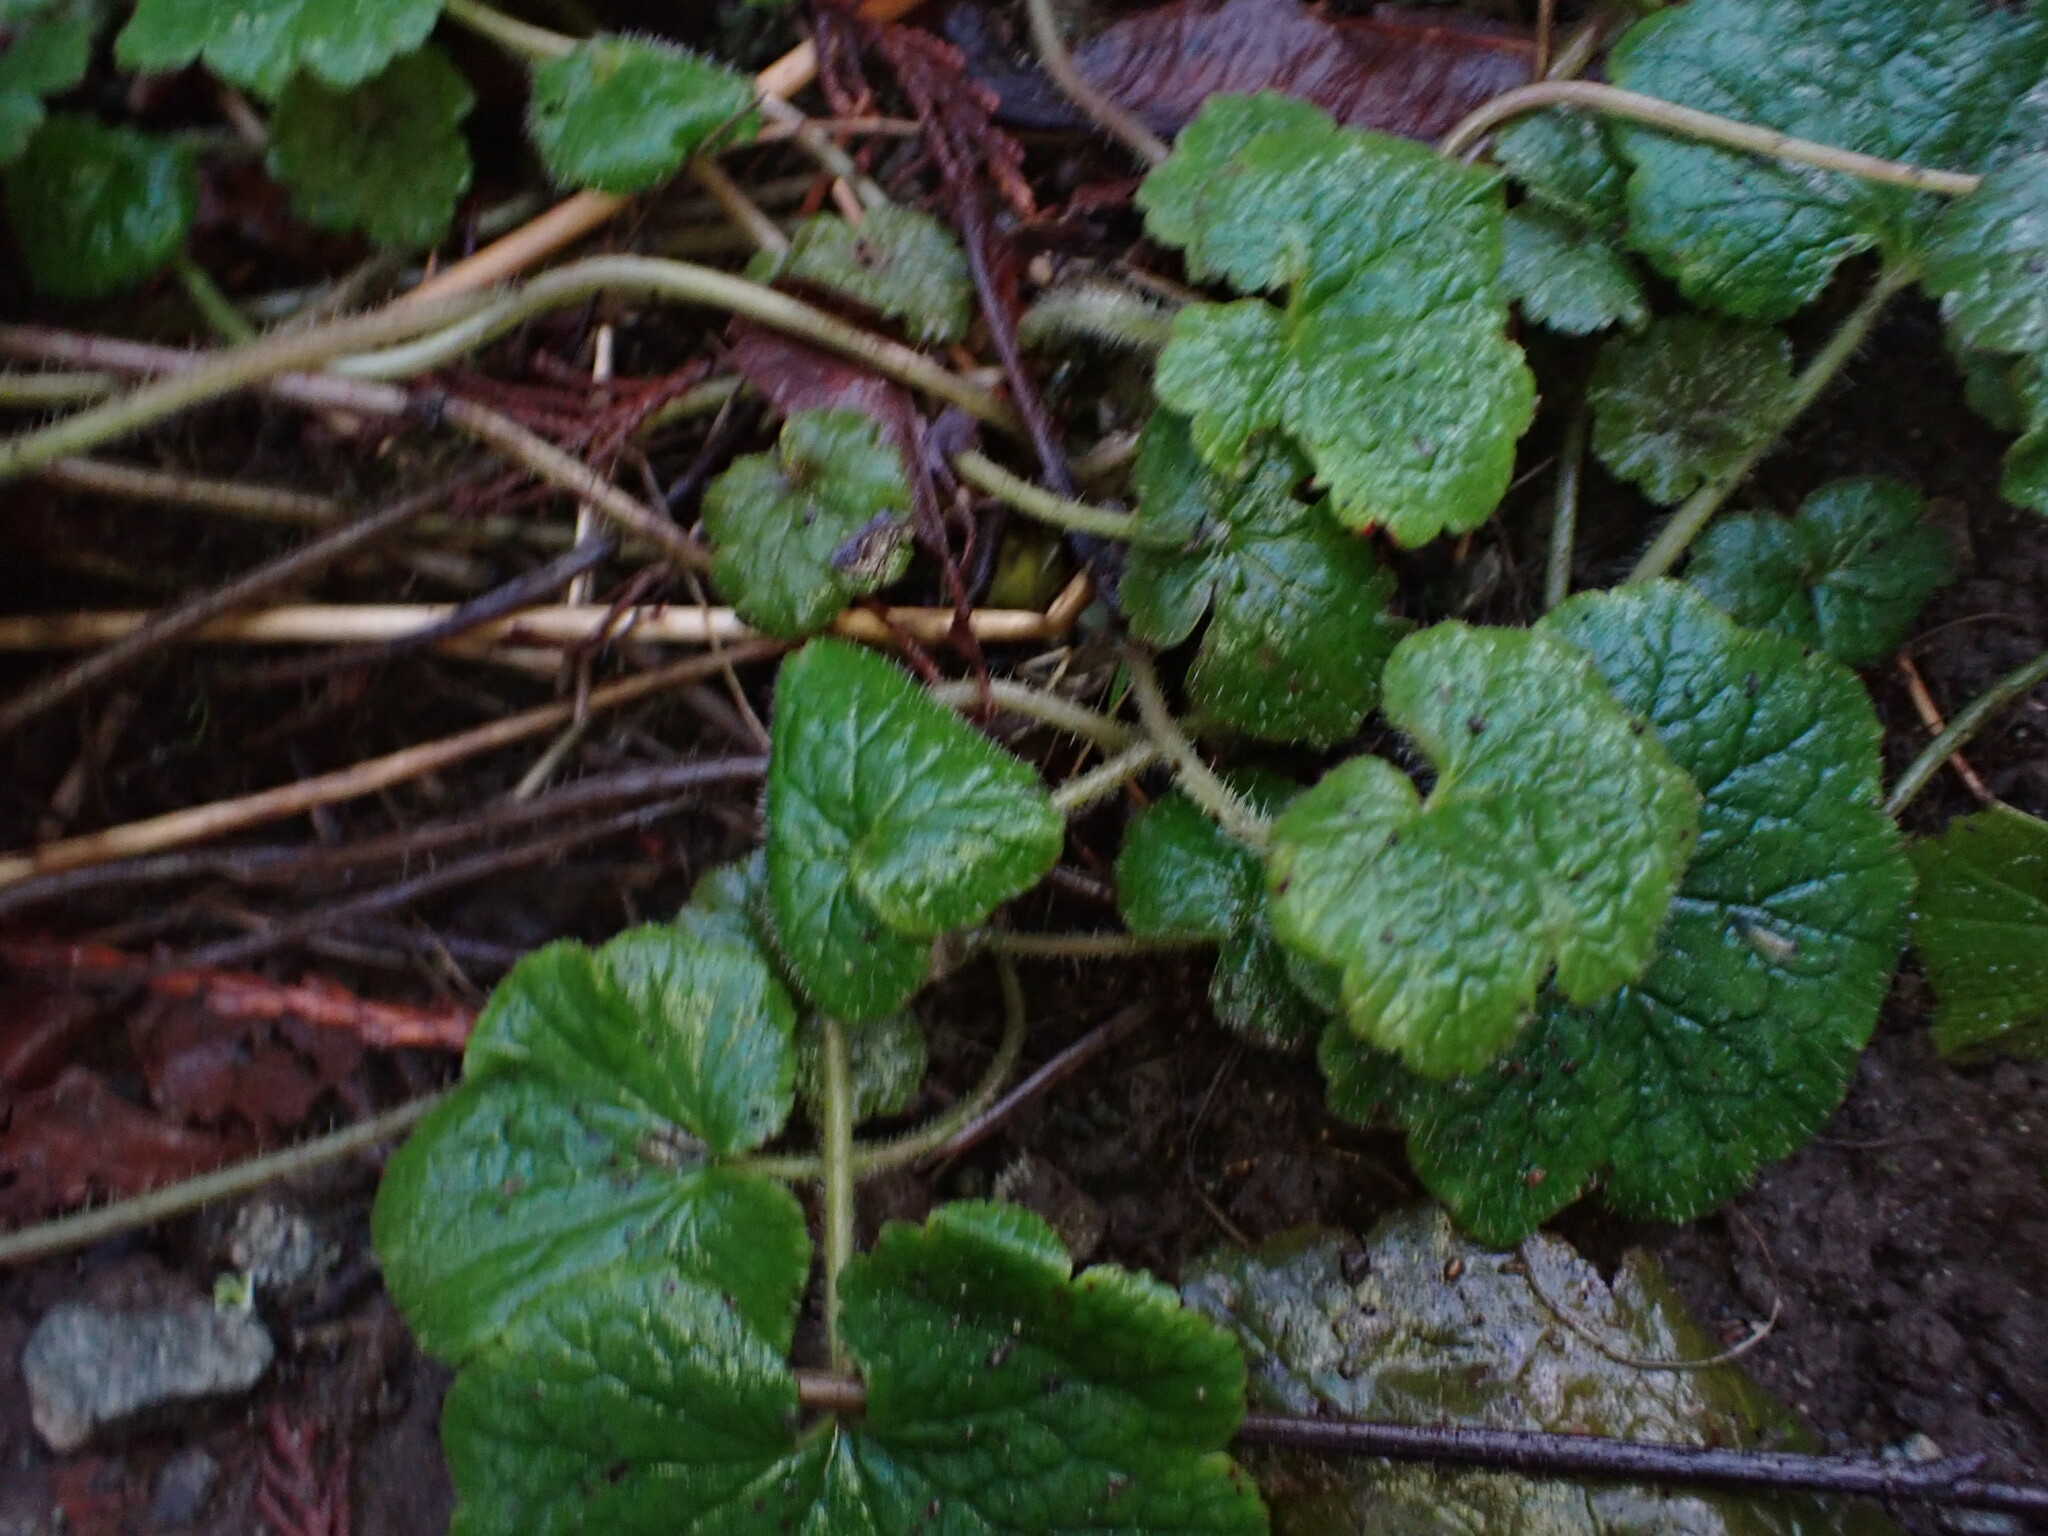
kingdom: Plantae
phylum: Tracheophyta
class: Magnoliopsida
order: Saxifragales
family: Saxifragaceae
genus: Tellima
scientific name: Tellima grandiflora
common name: Fringecups
